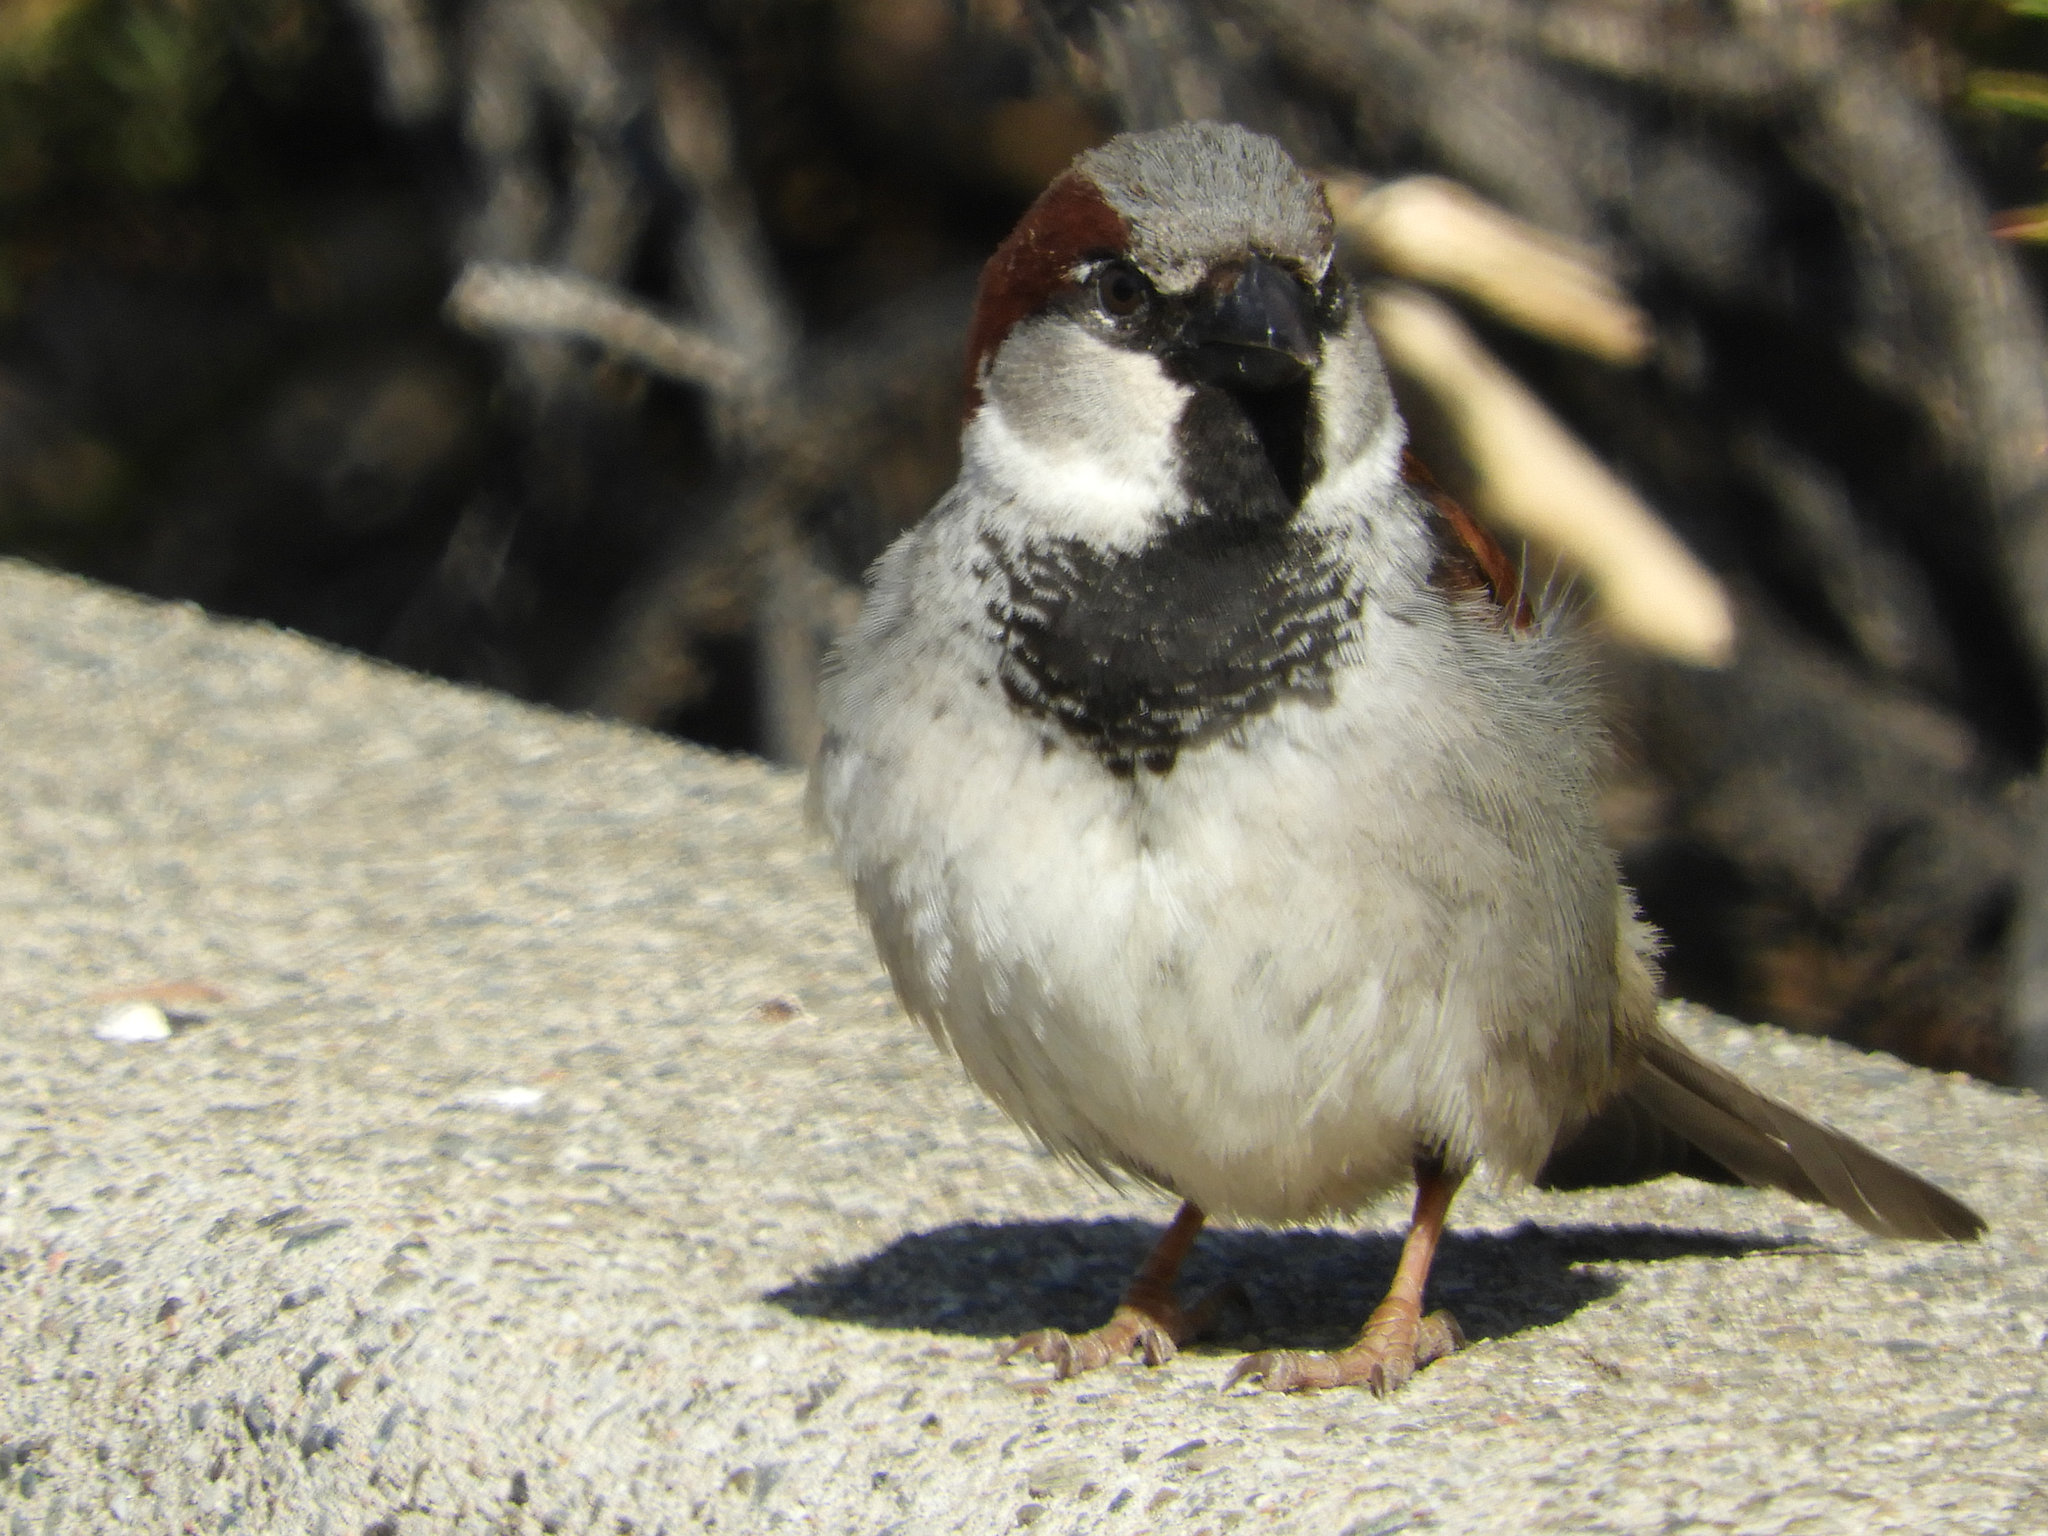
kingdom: Animalia
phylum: Chordata
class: Aves
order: Passeriformes
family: Passeridae
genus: Passer
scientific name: Passer domesticus
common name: House sparrow
